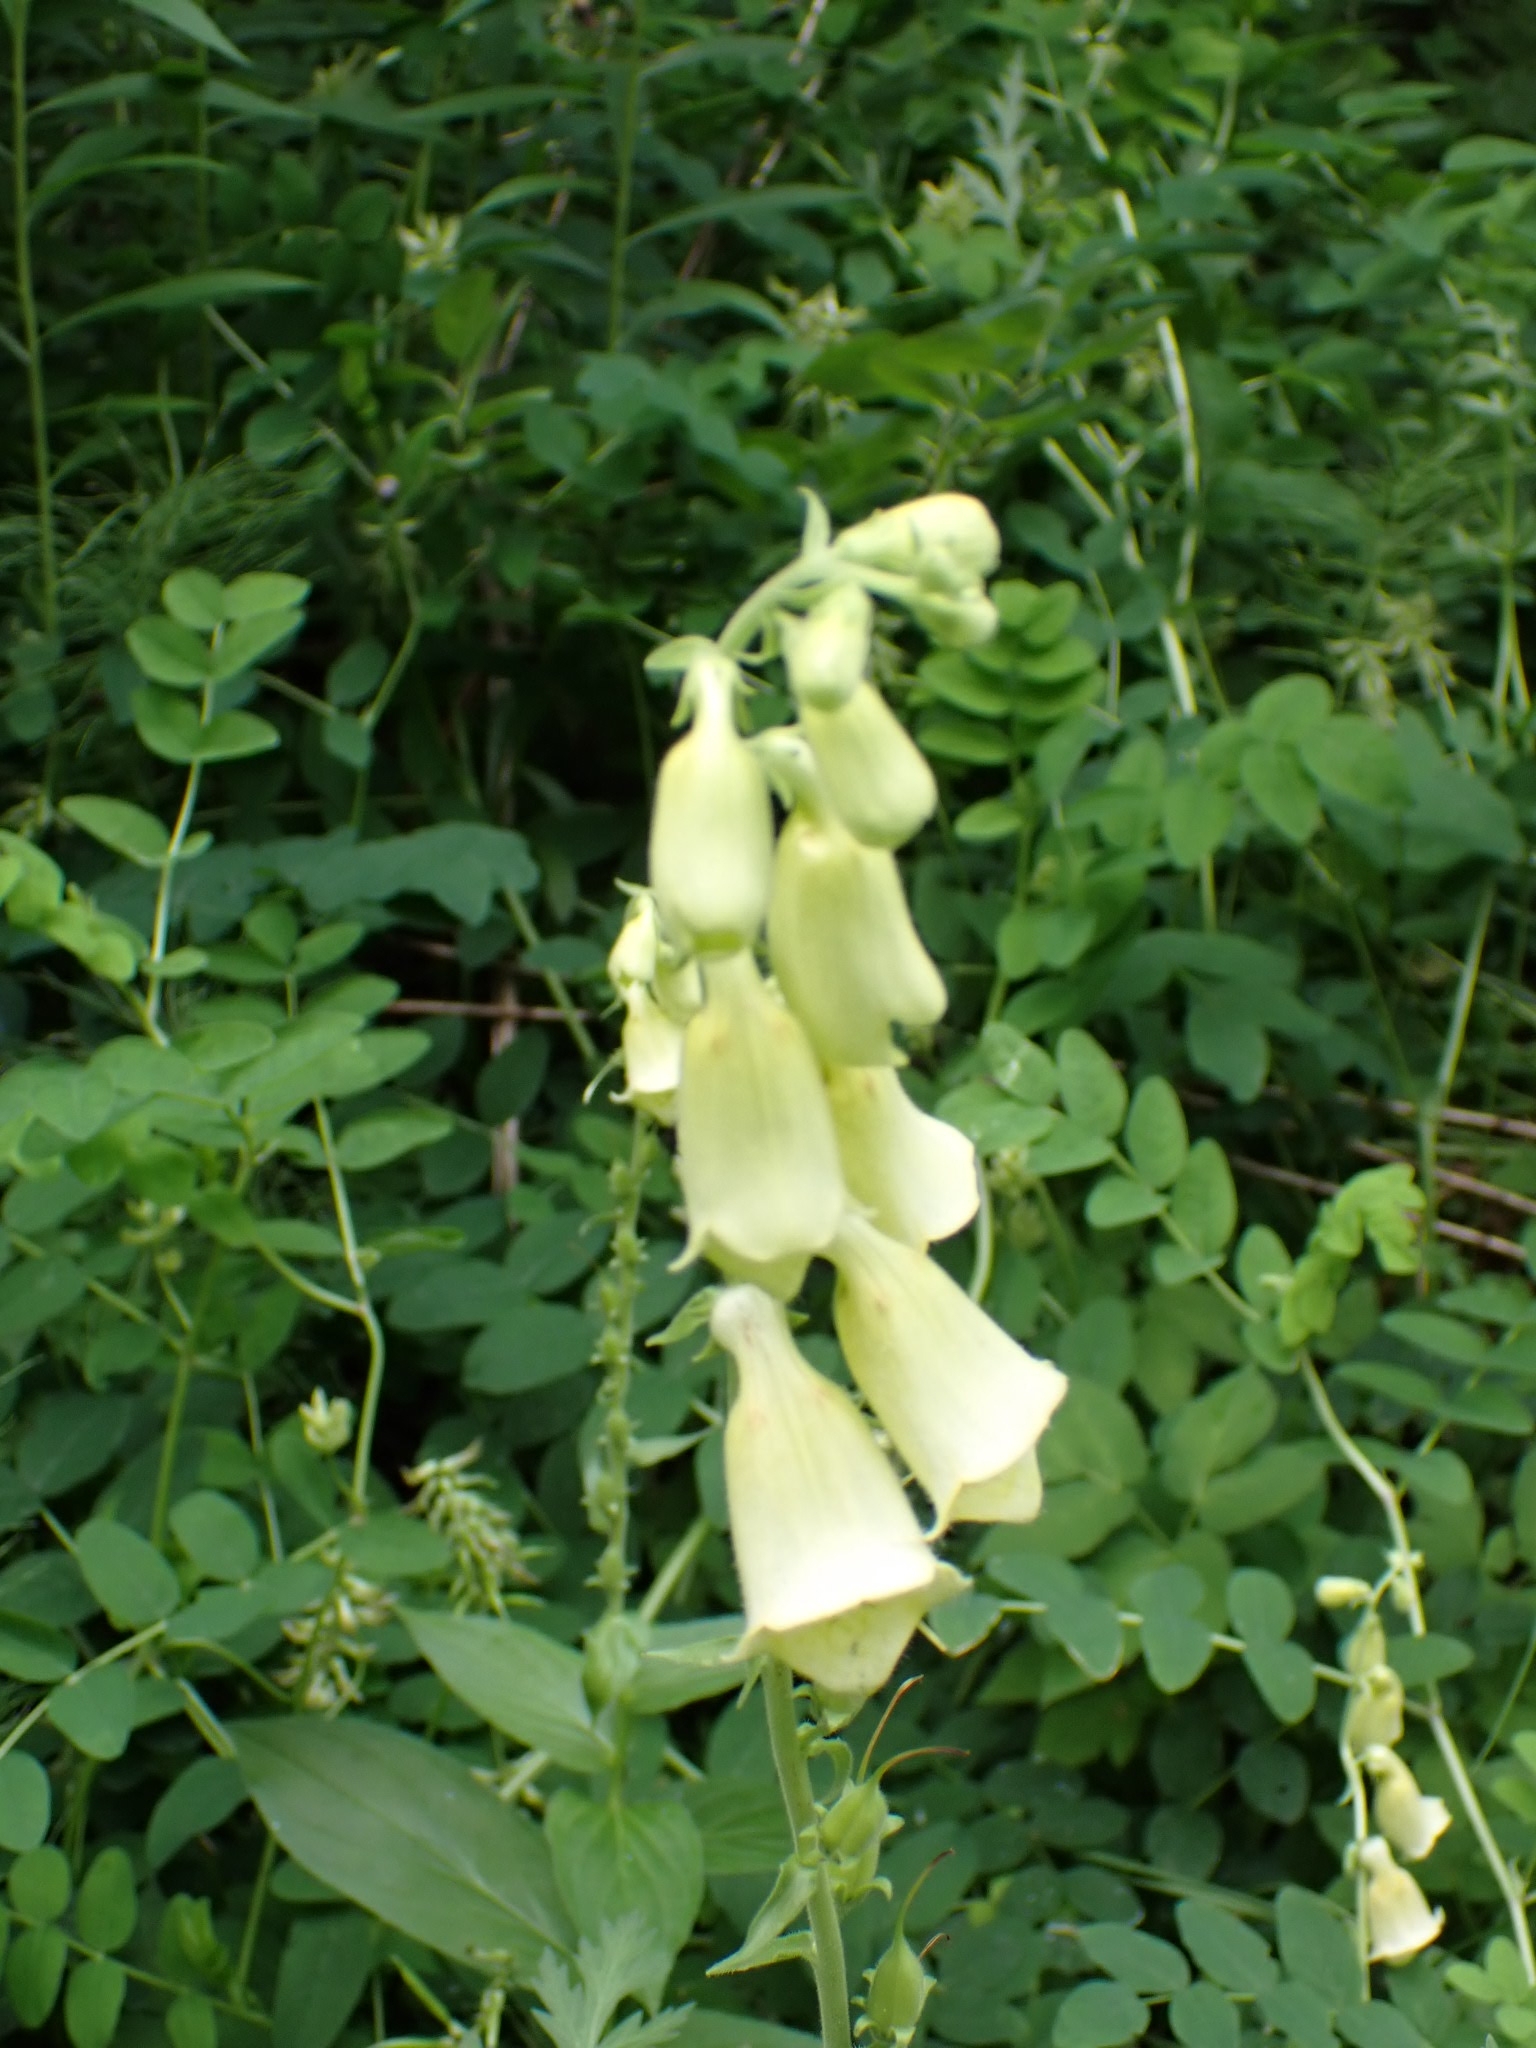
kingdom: Plantae
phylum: Tracheophyta
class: Magnoliopsida
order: Lamiales
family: Plantaginaceae
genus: Digitalis
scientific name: Digitalis grandiflora
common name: Yellow foxglove
